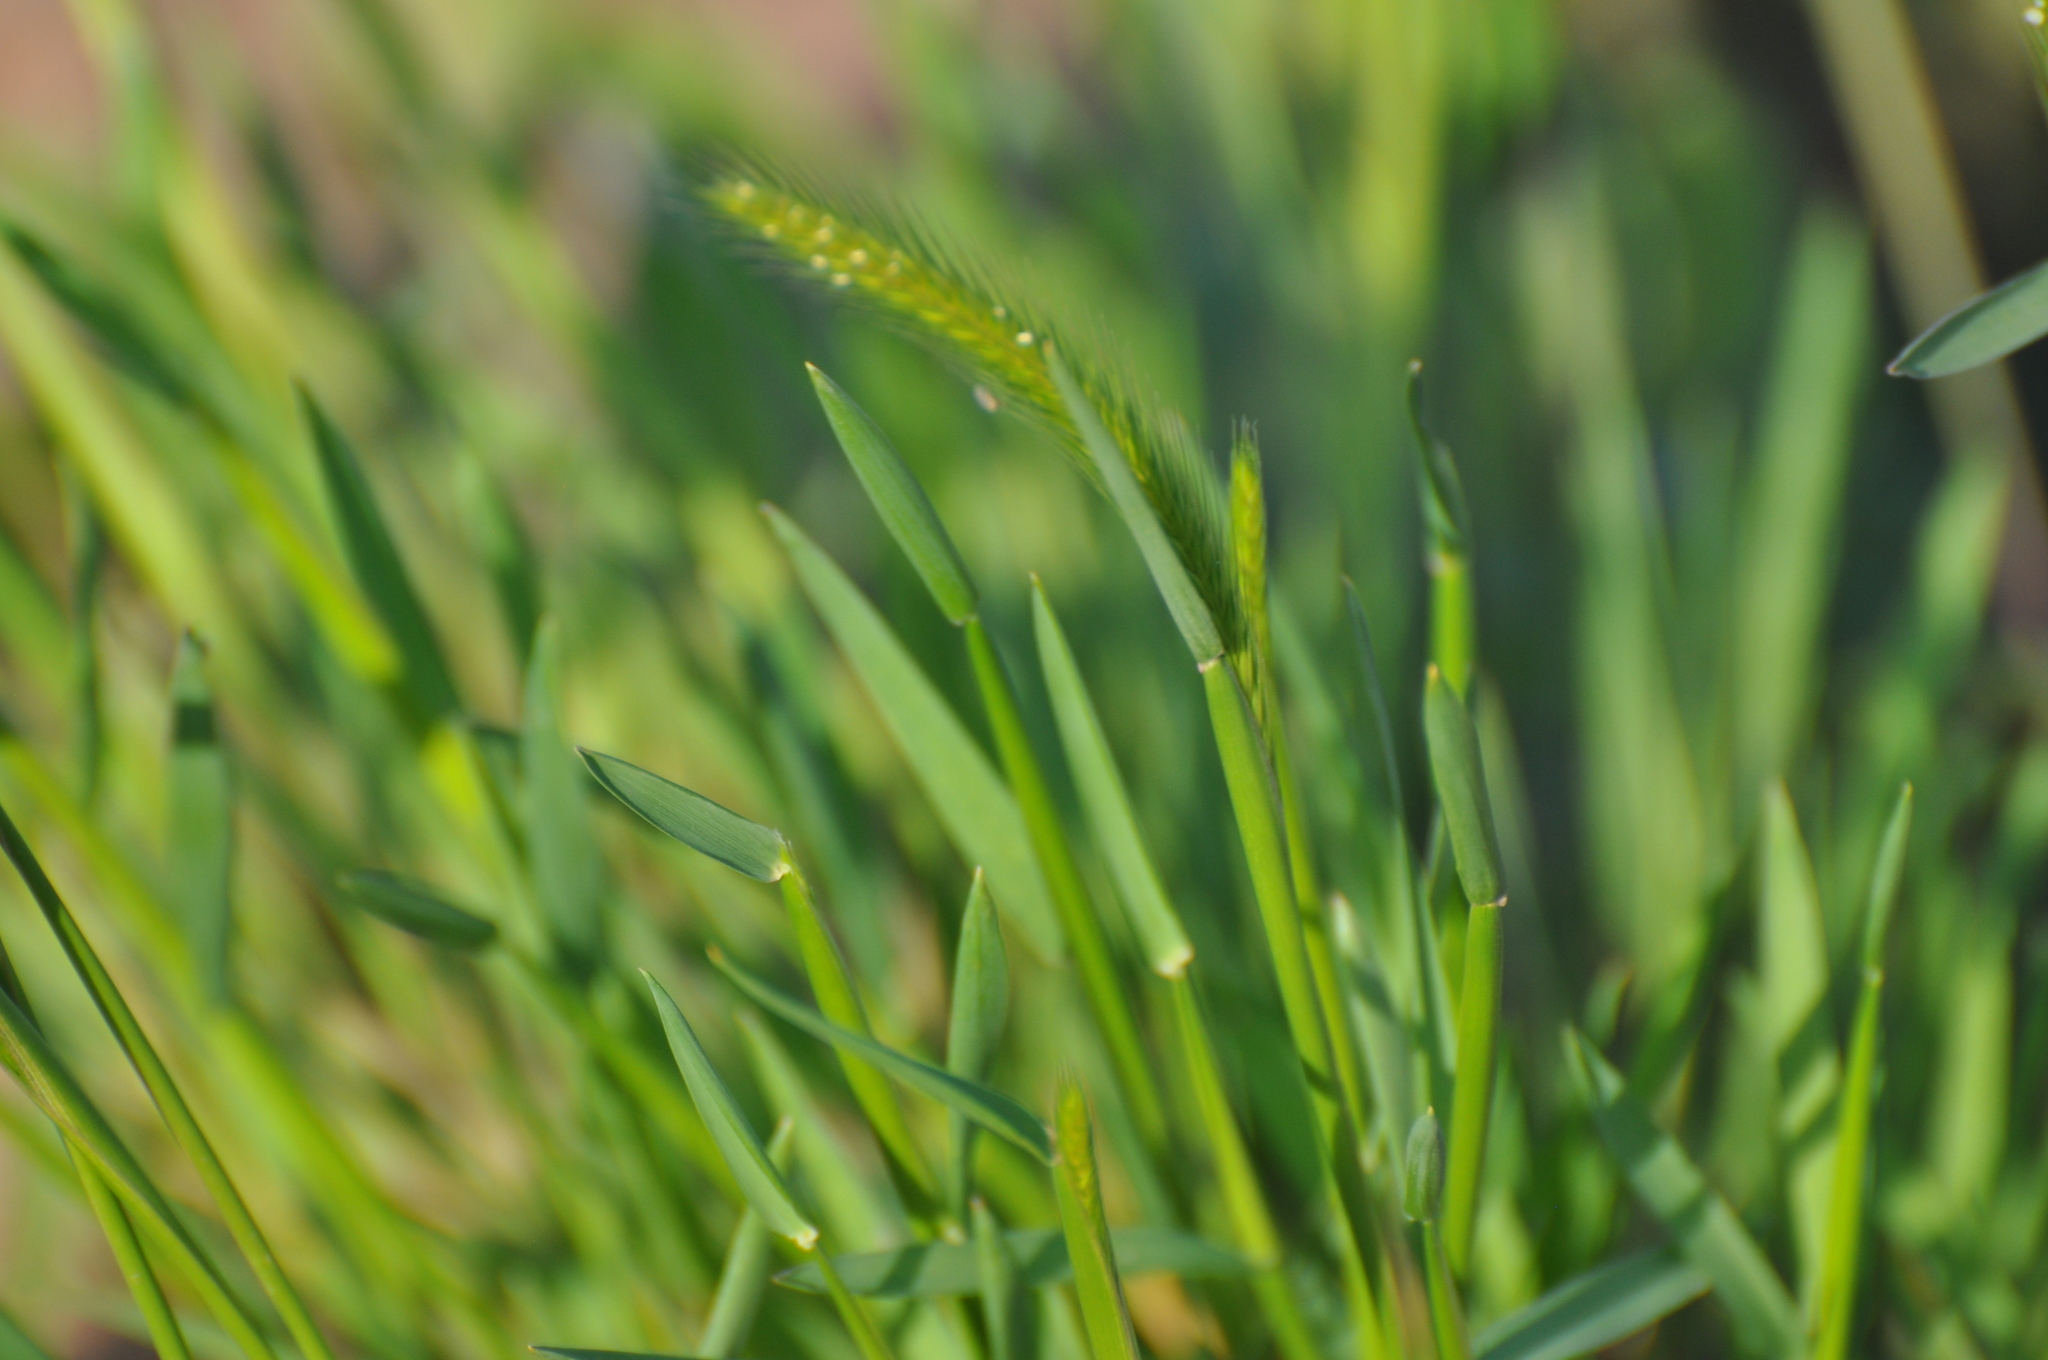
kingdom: Plantae
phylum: Tracheophyta
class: Liliopsida
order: Poales
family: Poaceae
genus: Hordeum
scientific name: Hordeum pusillum
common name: Little barley
